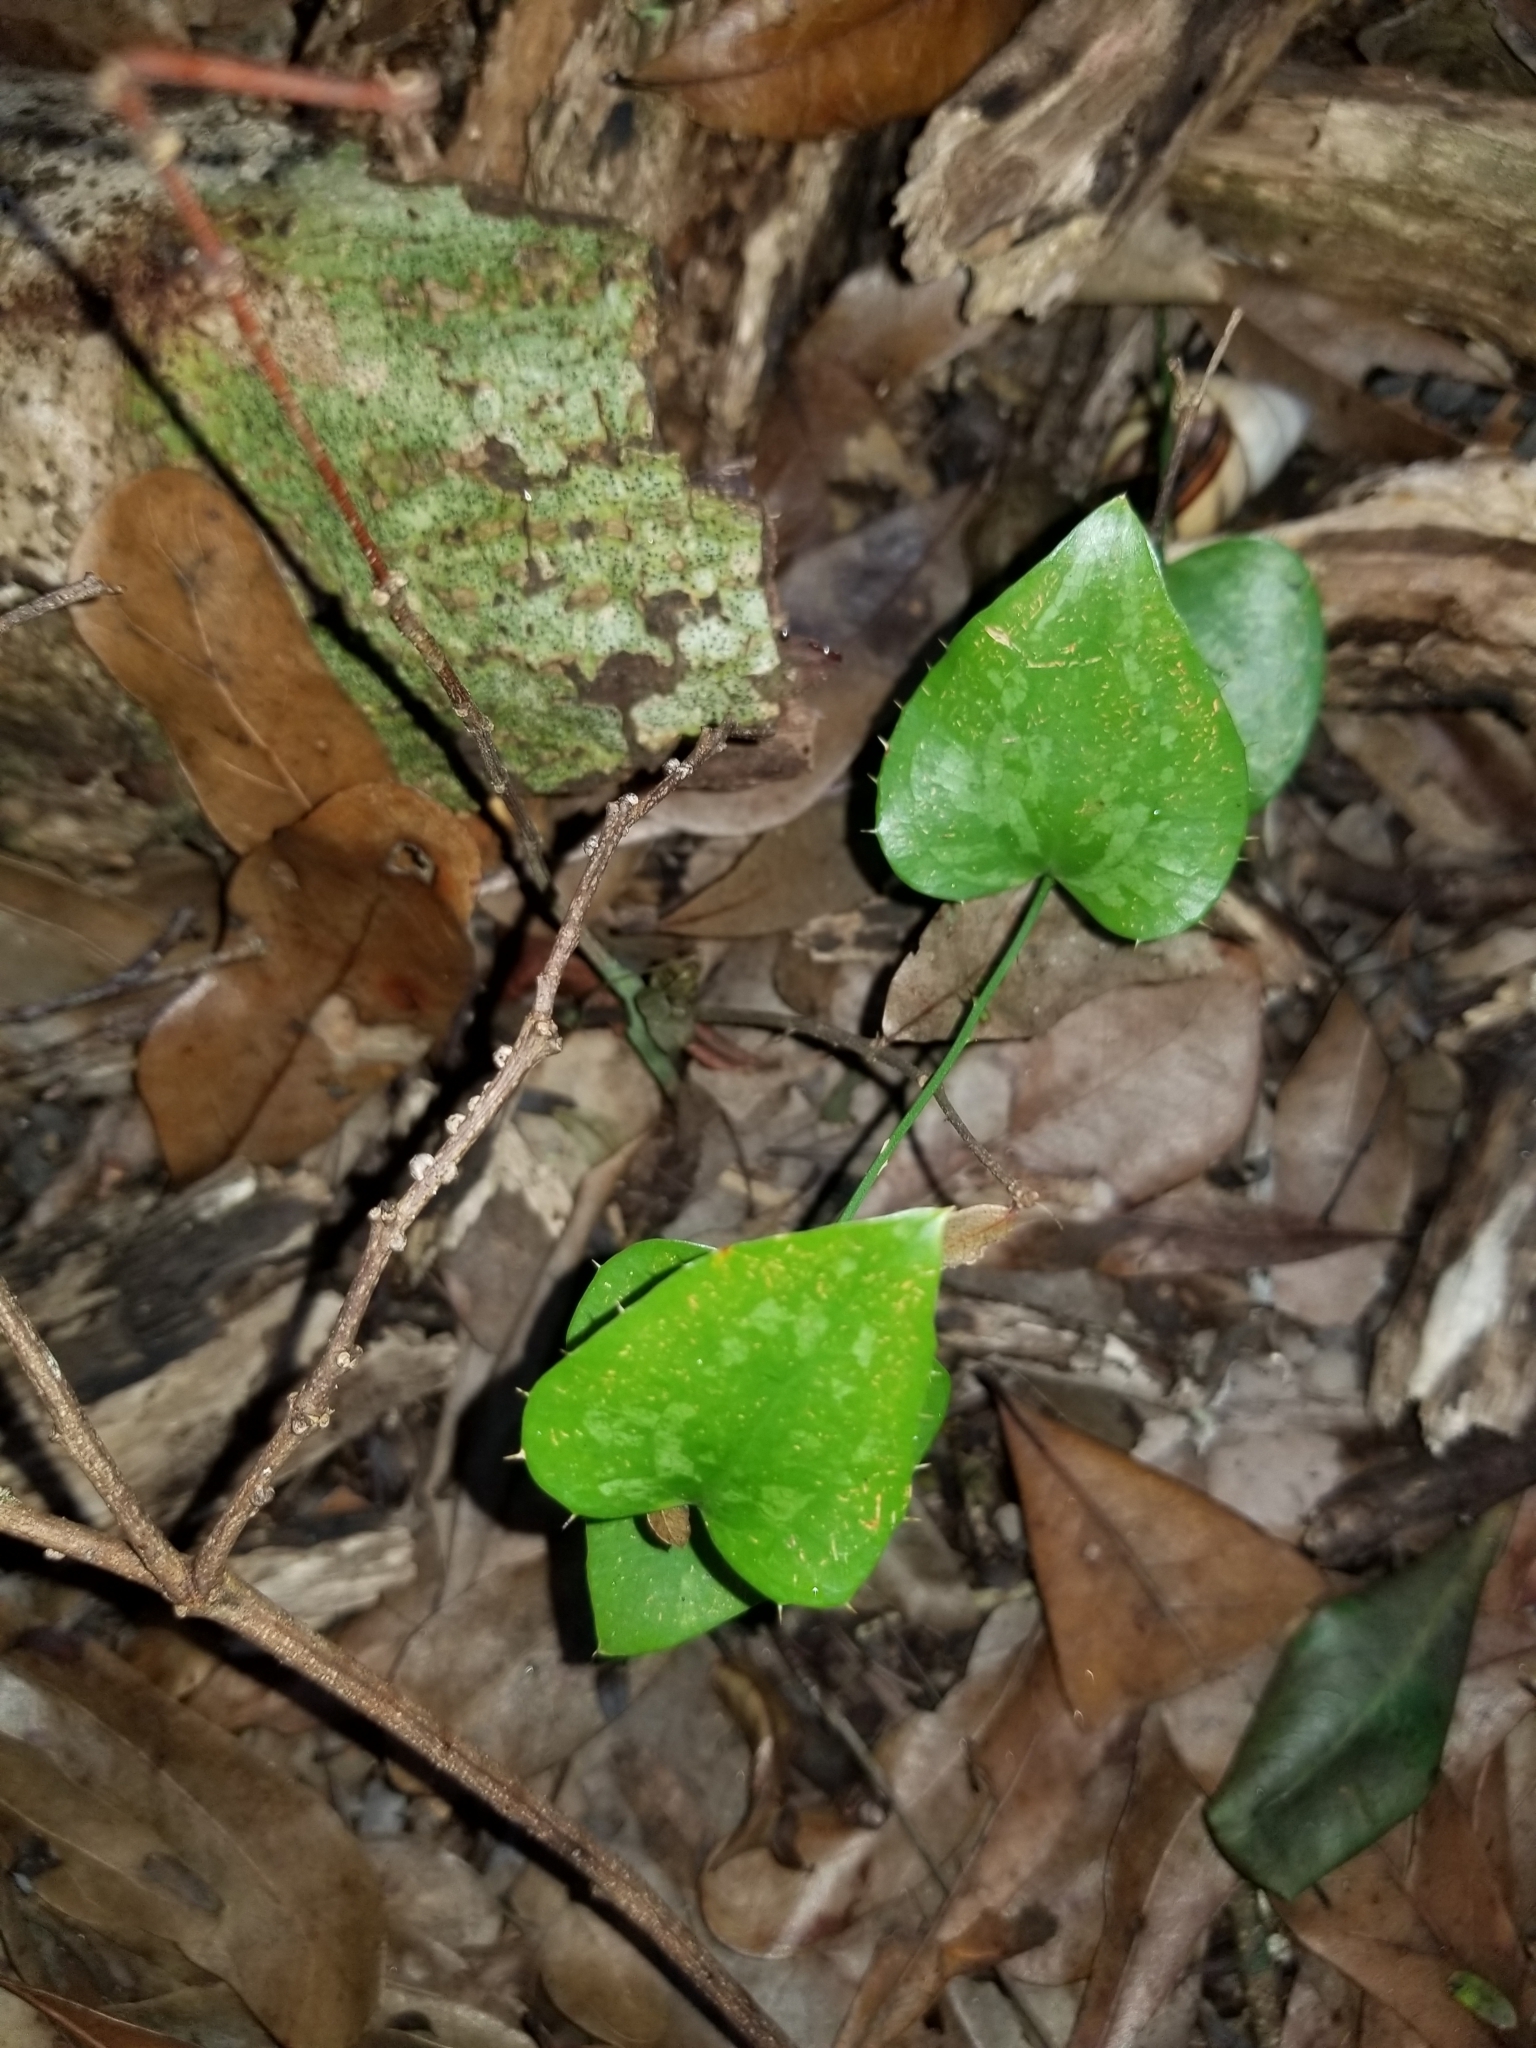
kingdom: Plantae
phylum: Tracheophyta
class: Liliopsida
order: Liliales
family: Smilacaceae
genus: Smilax
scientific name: Smilax bona-nox
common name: Catbrier
